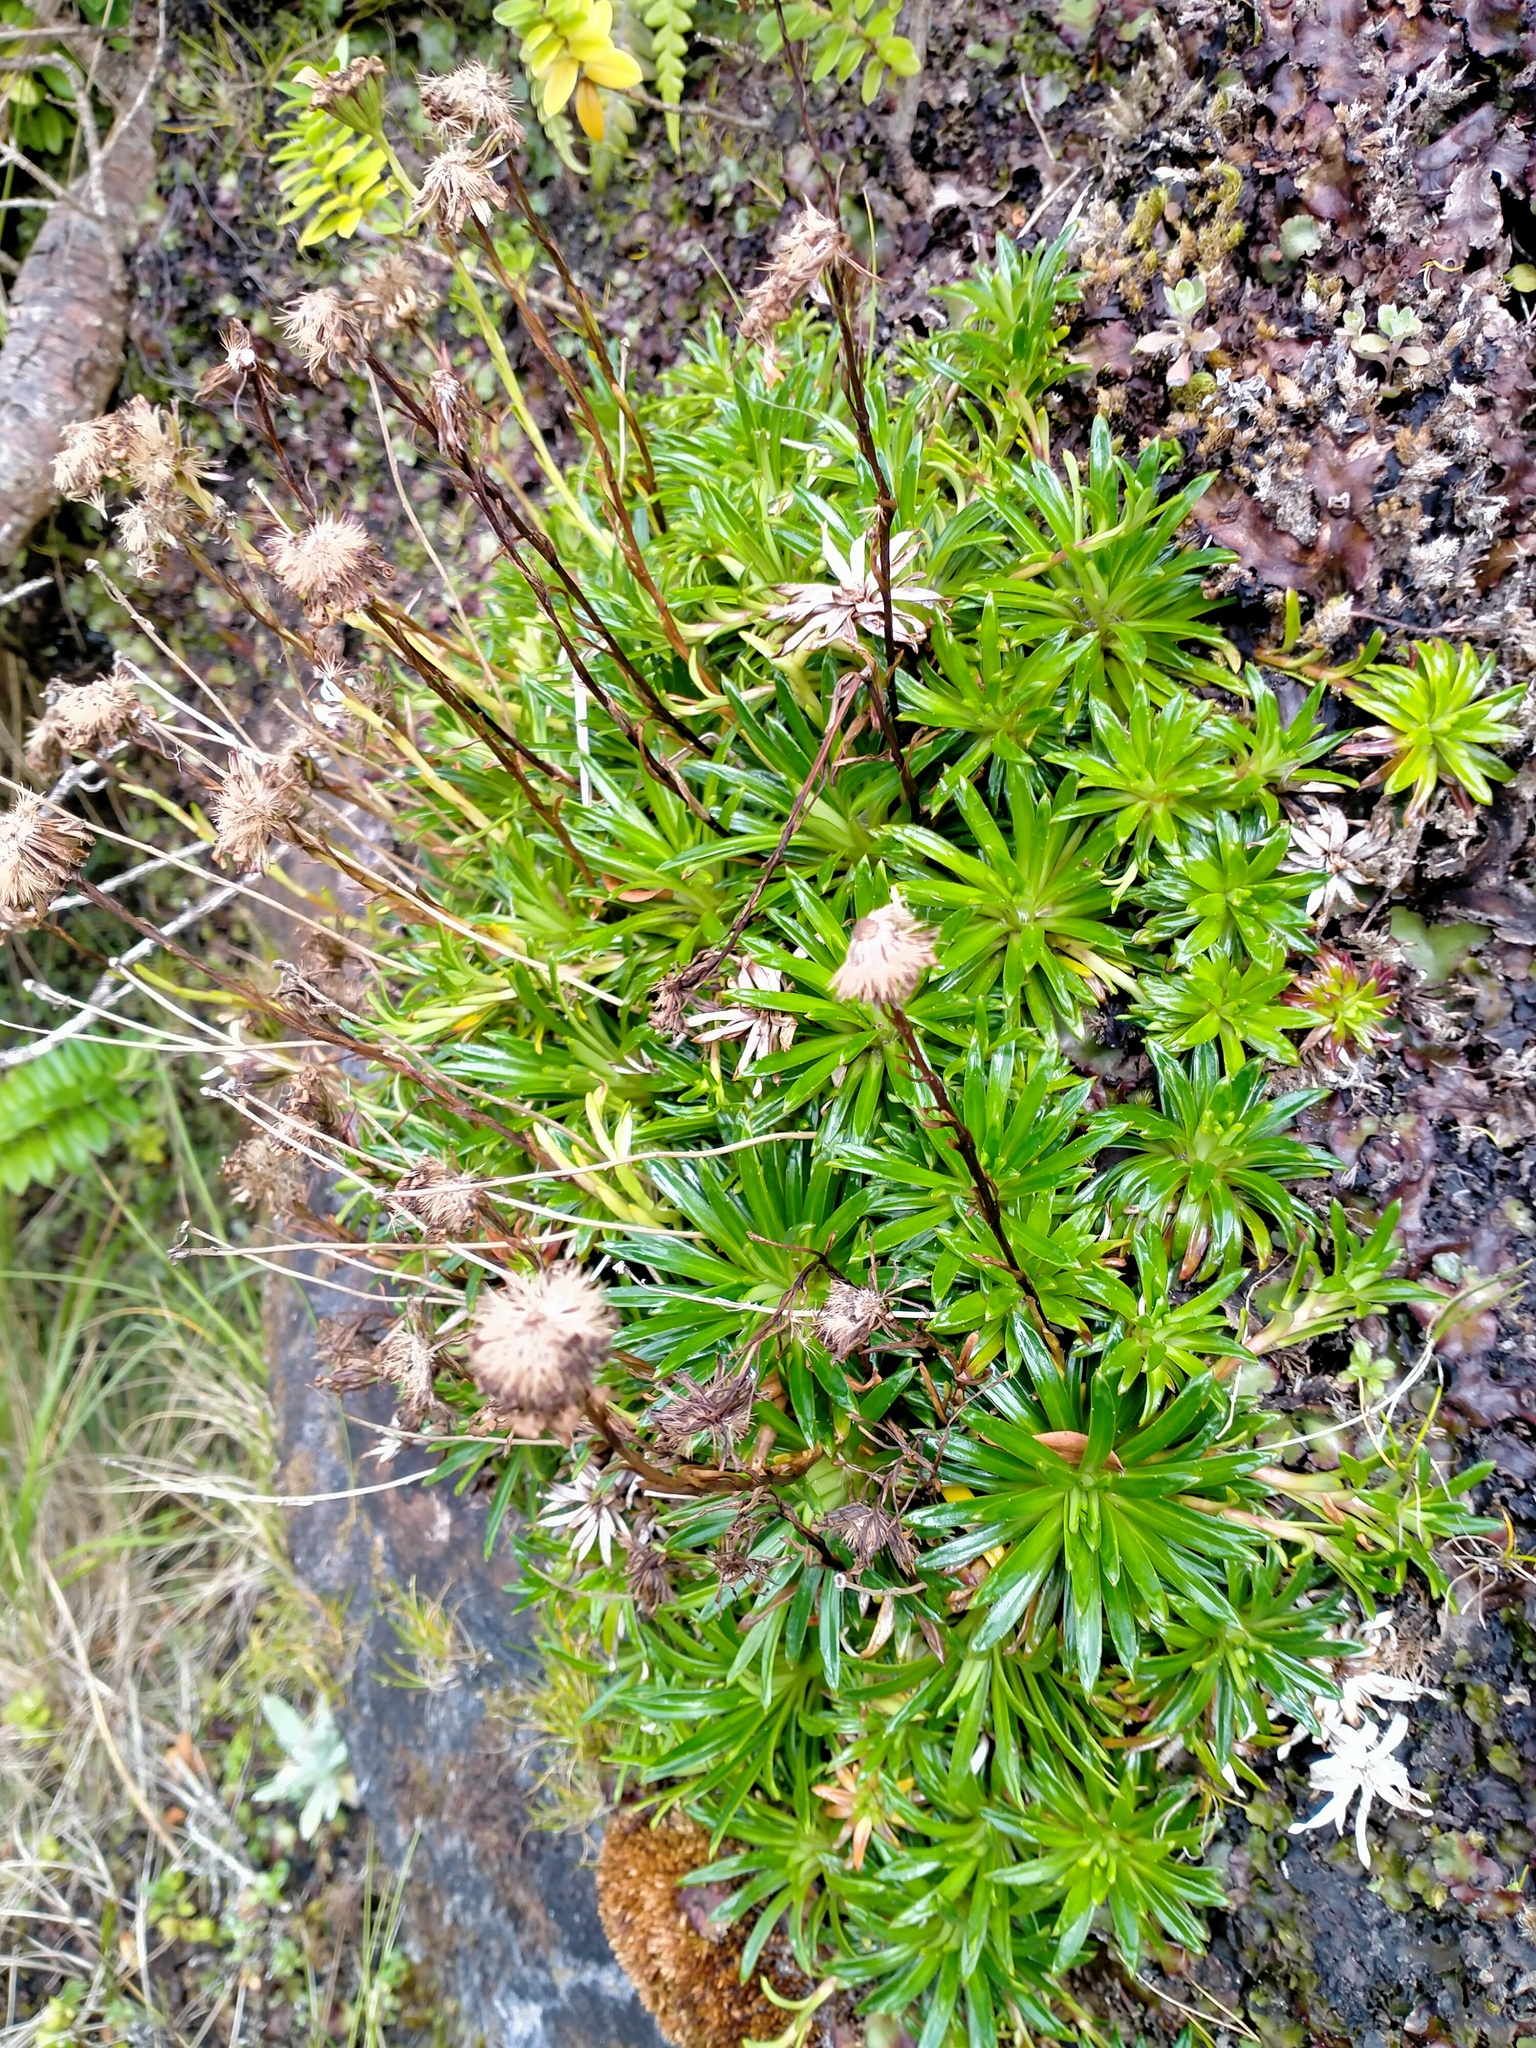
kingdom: Plantae
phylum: Tracheophyta
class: Magnoliopsida
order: Asterales
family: Asteraceae
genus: Damnamenia
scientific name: Damnamenia vernicosa
